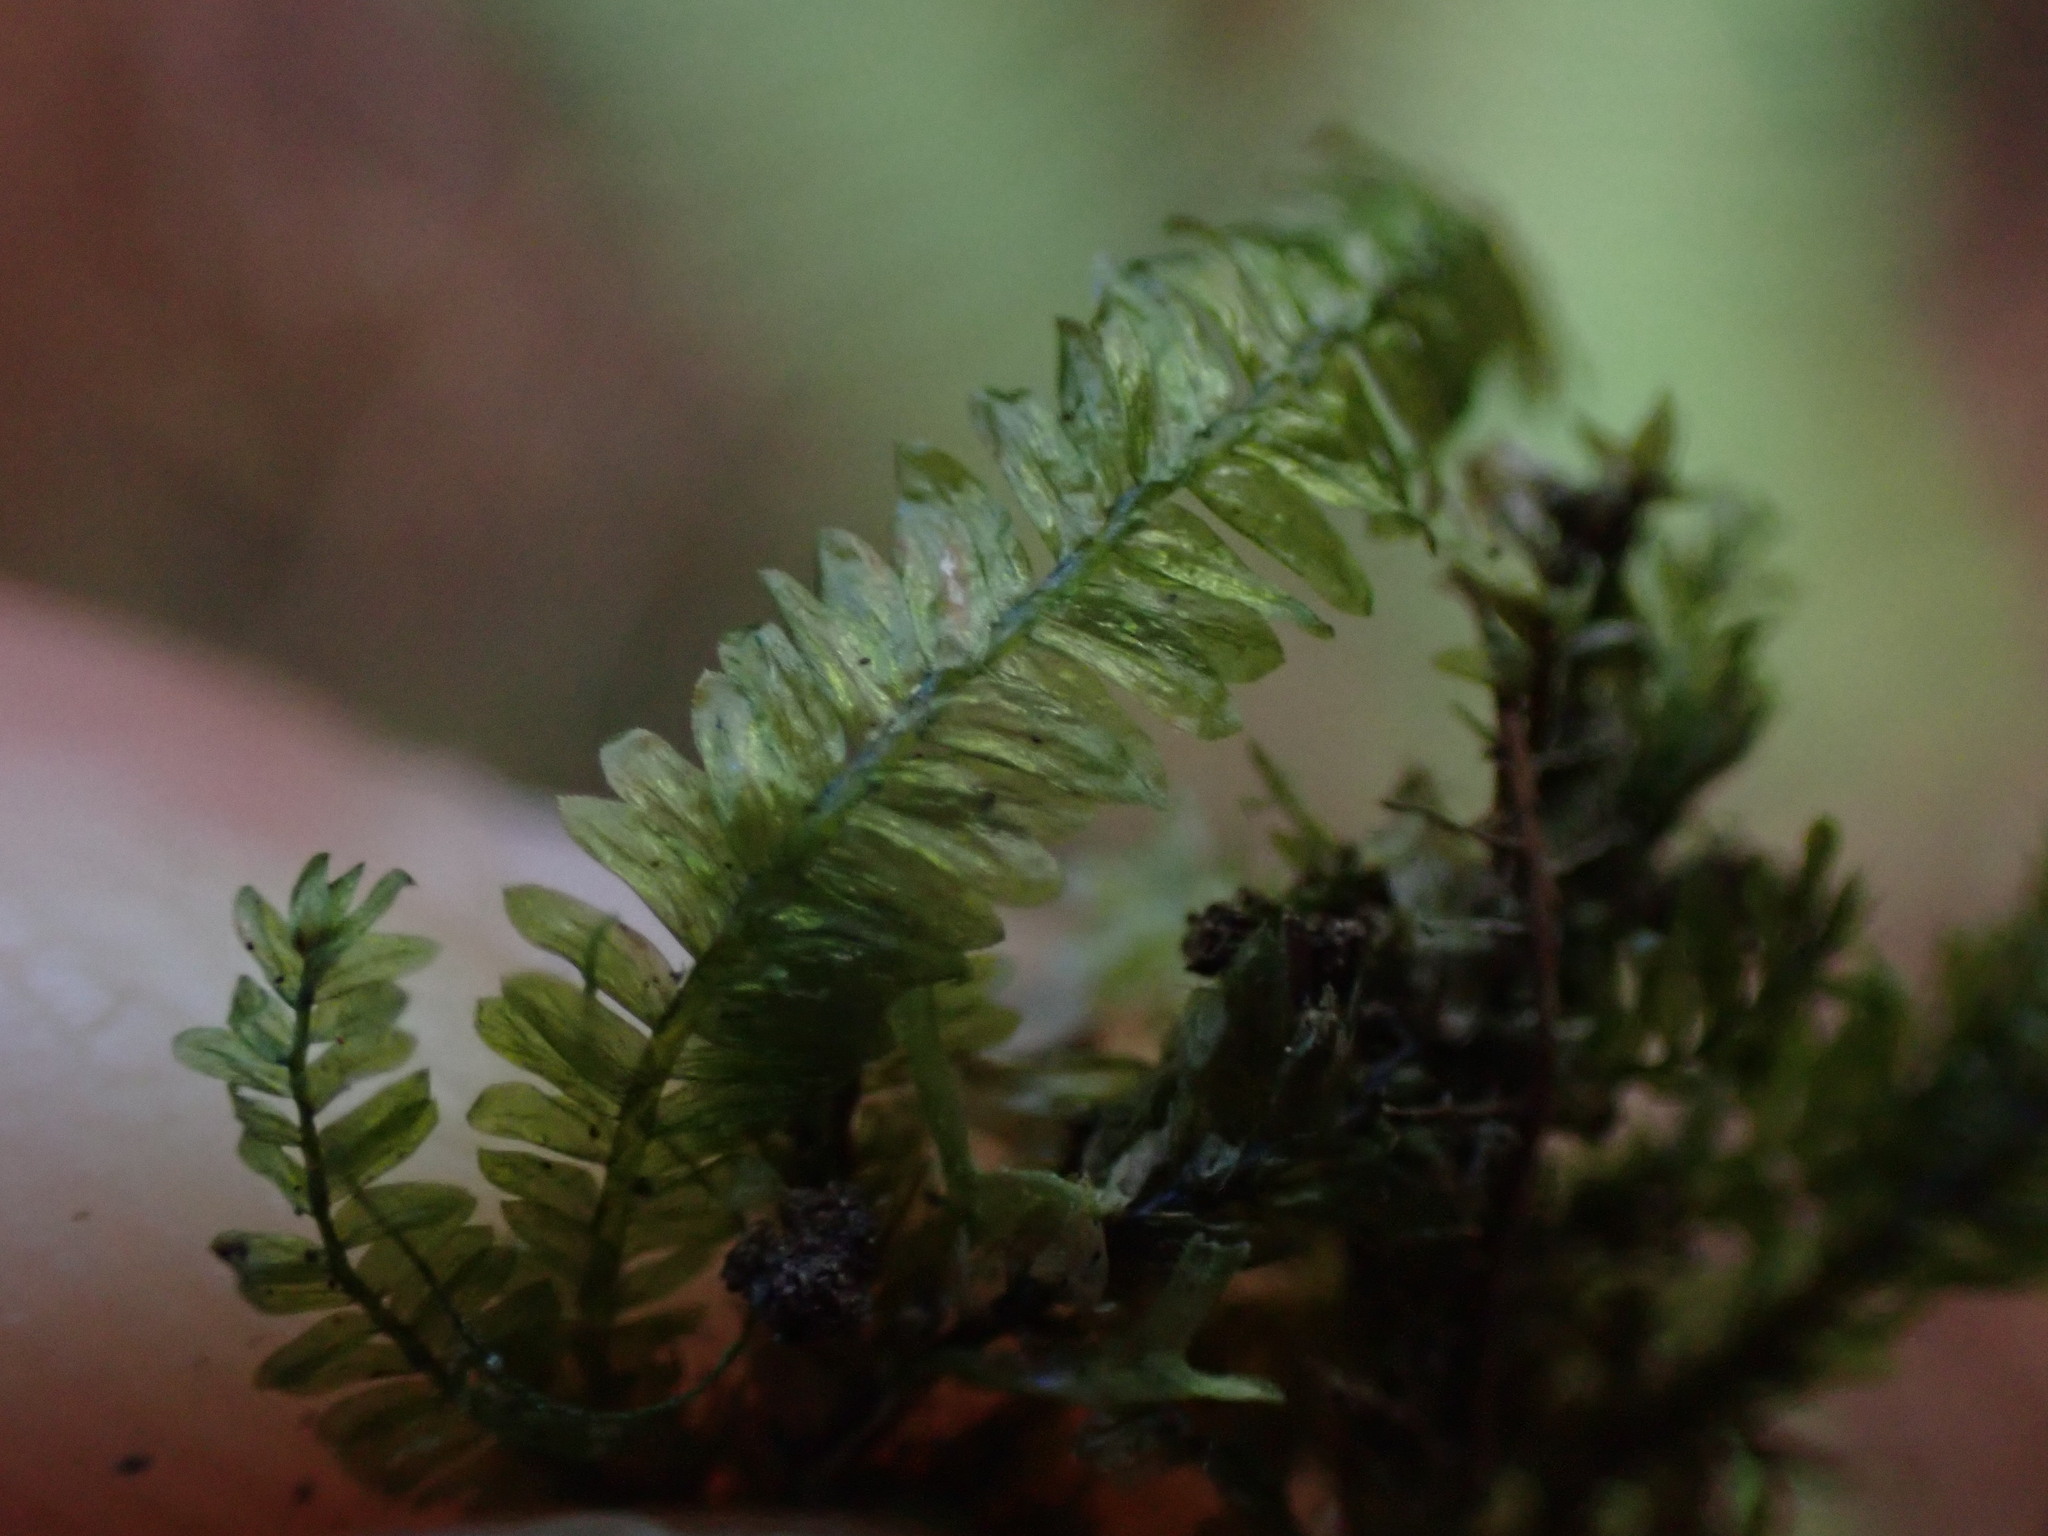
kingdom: Plantae
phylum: Bryophyta
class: Bryopsida
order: Hypnales
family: Neckeraceae
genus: Dannorrisia
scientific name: Dannorrisia bigelovii
